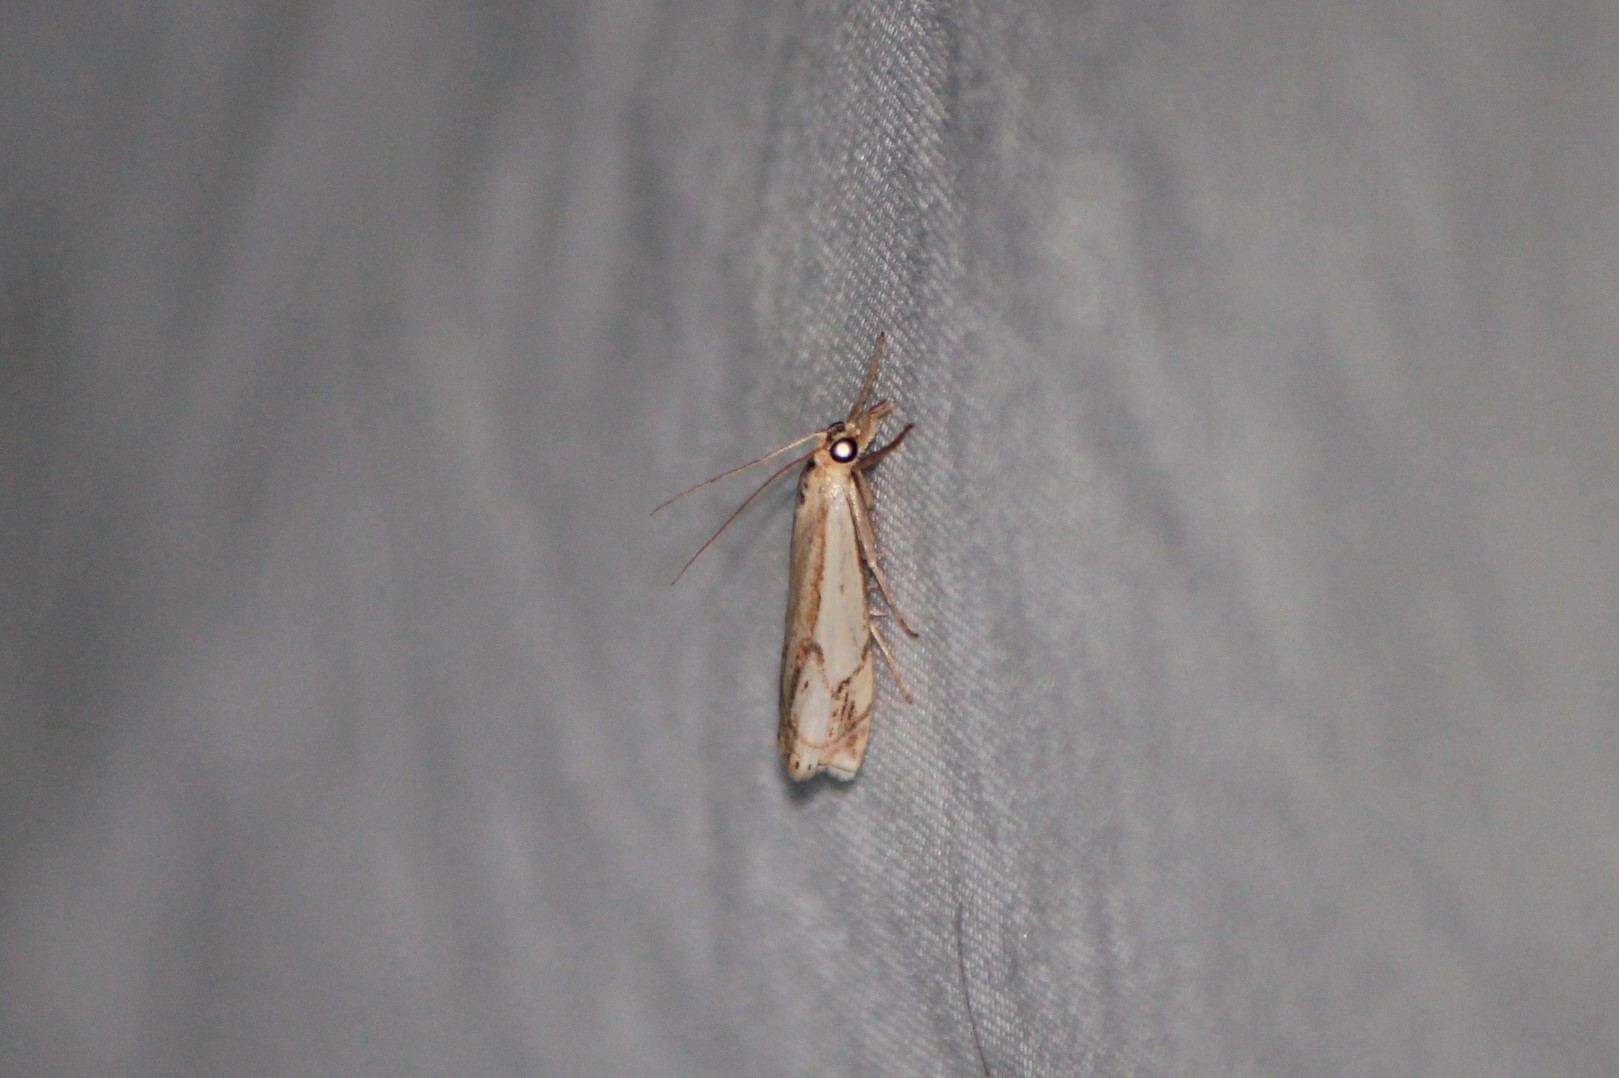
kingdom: Animalia
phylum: Arthropoda
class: Insecta
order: Lepidoptera
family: Crambidae
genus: Crambus
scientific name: Crambus agitatellus
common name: Double-banded grass-veneer
